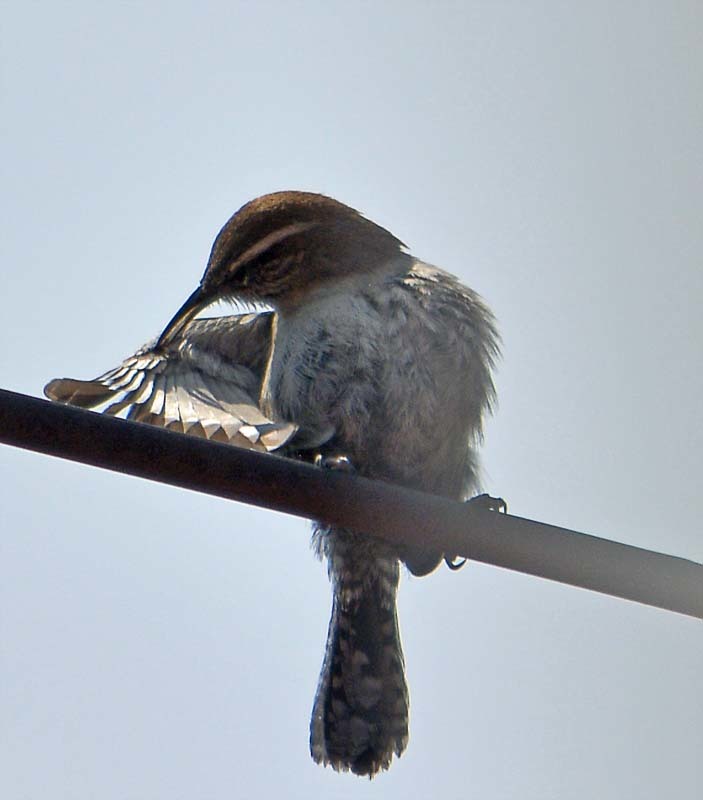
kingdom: Animalia
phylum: Chordata
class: Aves
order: Passeriformes
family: Troglodytidae
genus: Thryomanes
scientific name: Thryomanes bewickii
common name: Bewick's wren
